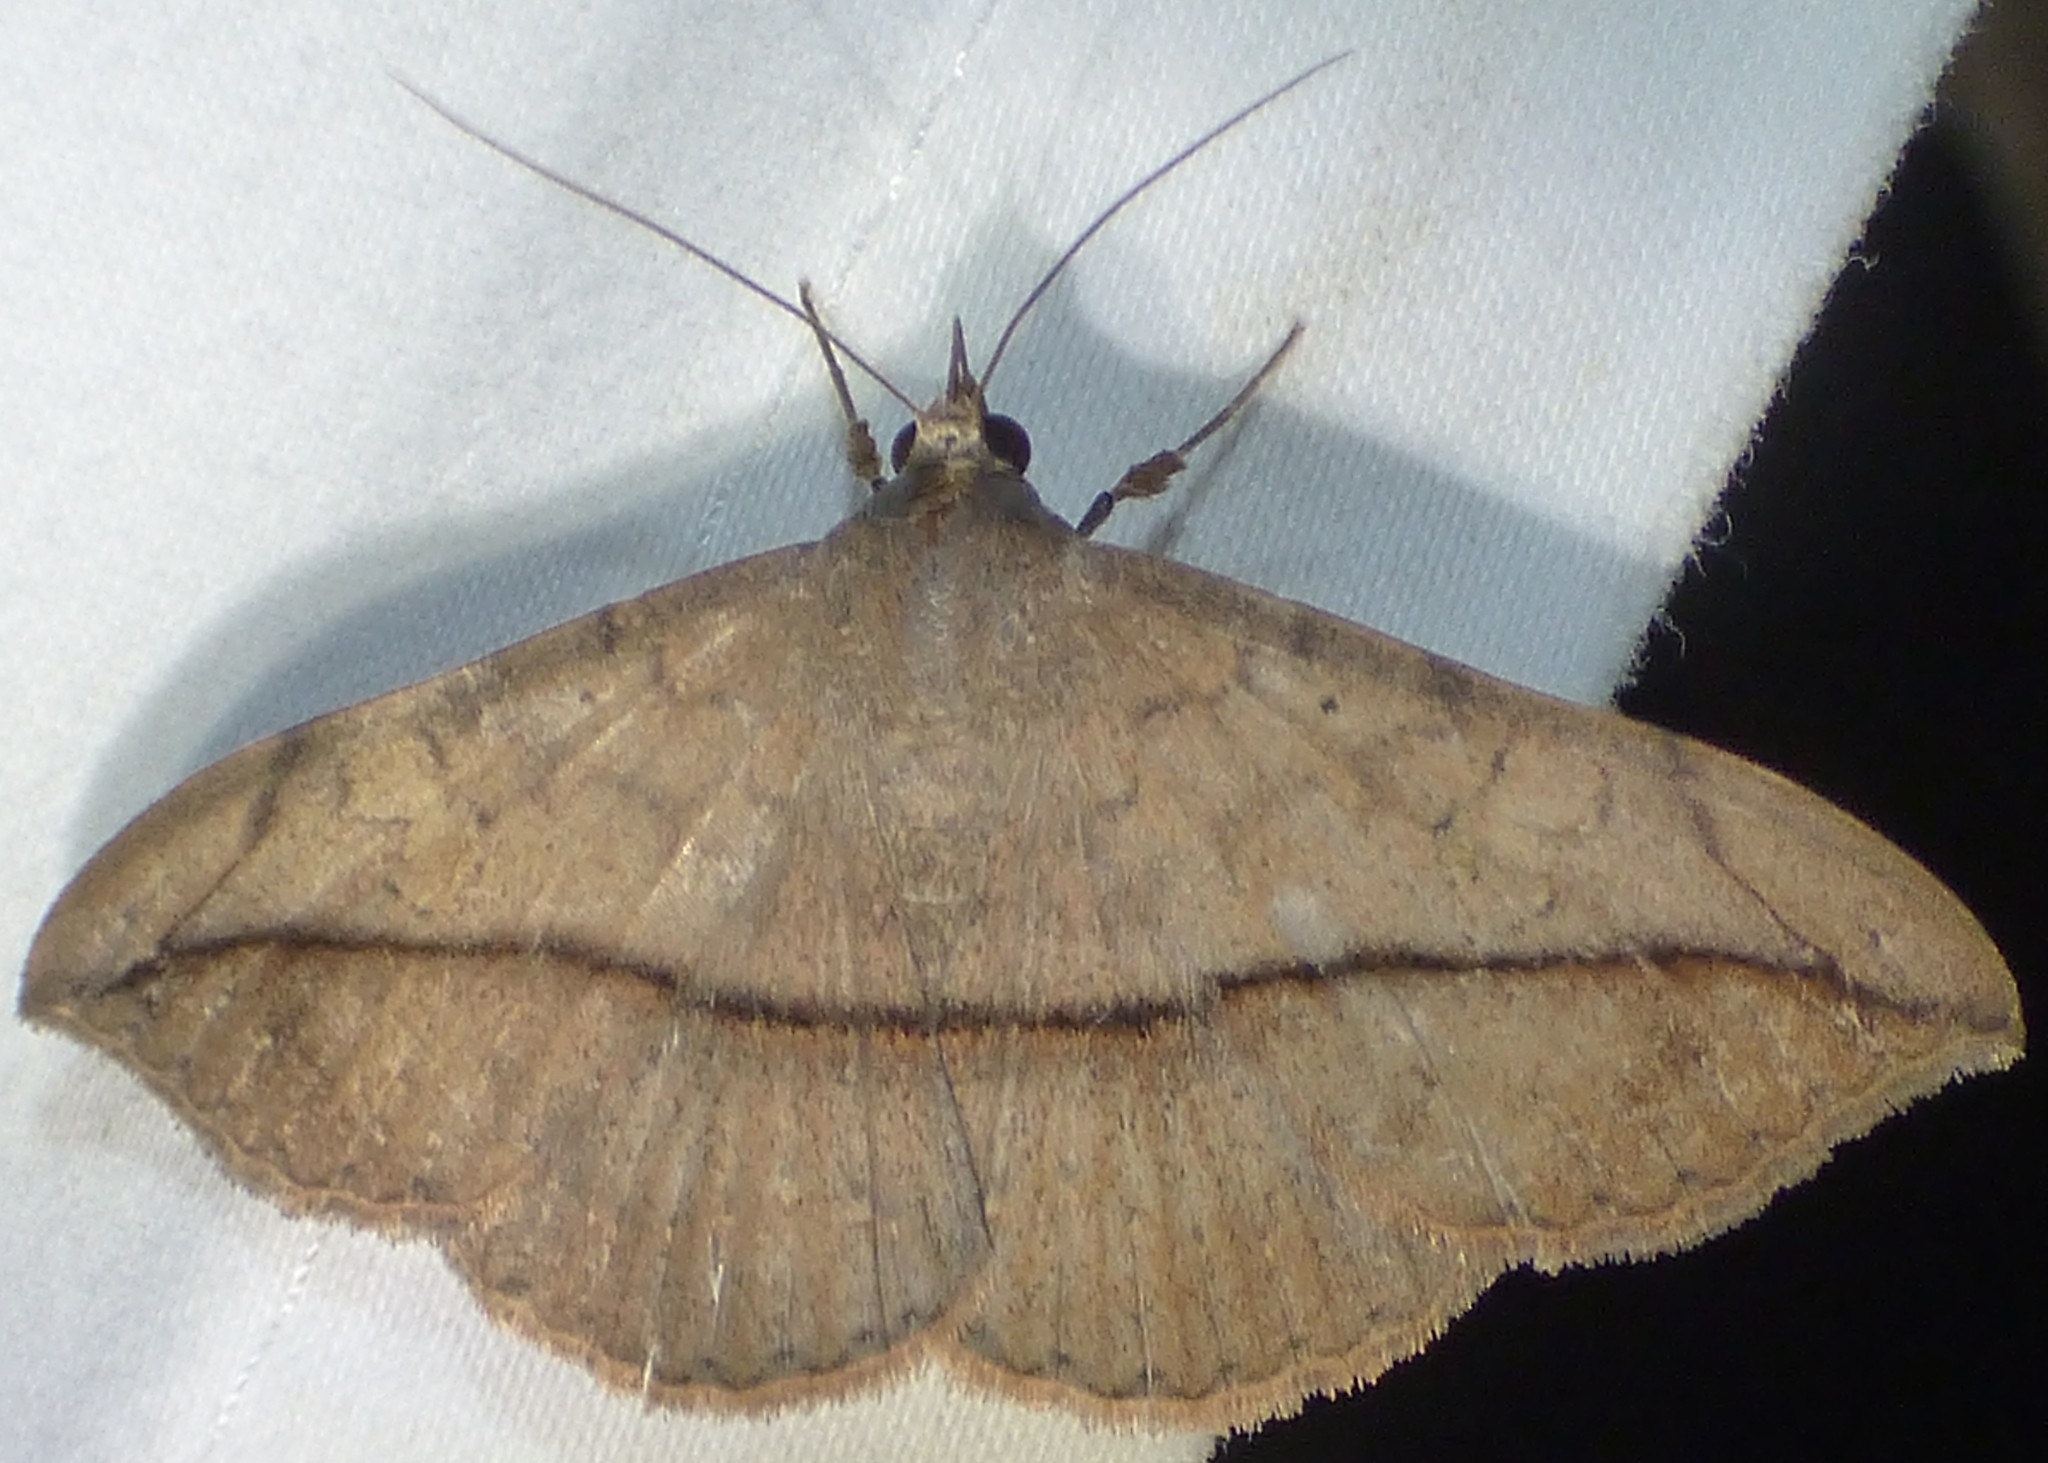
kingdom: Animalia
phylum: Arthropoda
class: Insecta
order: Lepidoptera
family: Erebidae
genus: Anticarsia
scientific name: Anticarsia gemmatalis
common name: Cutworm moth
